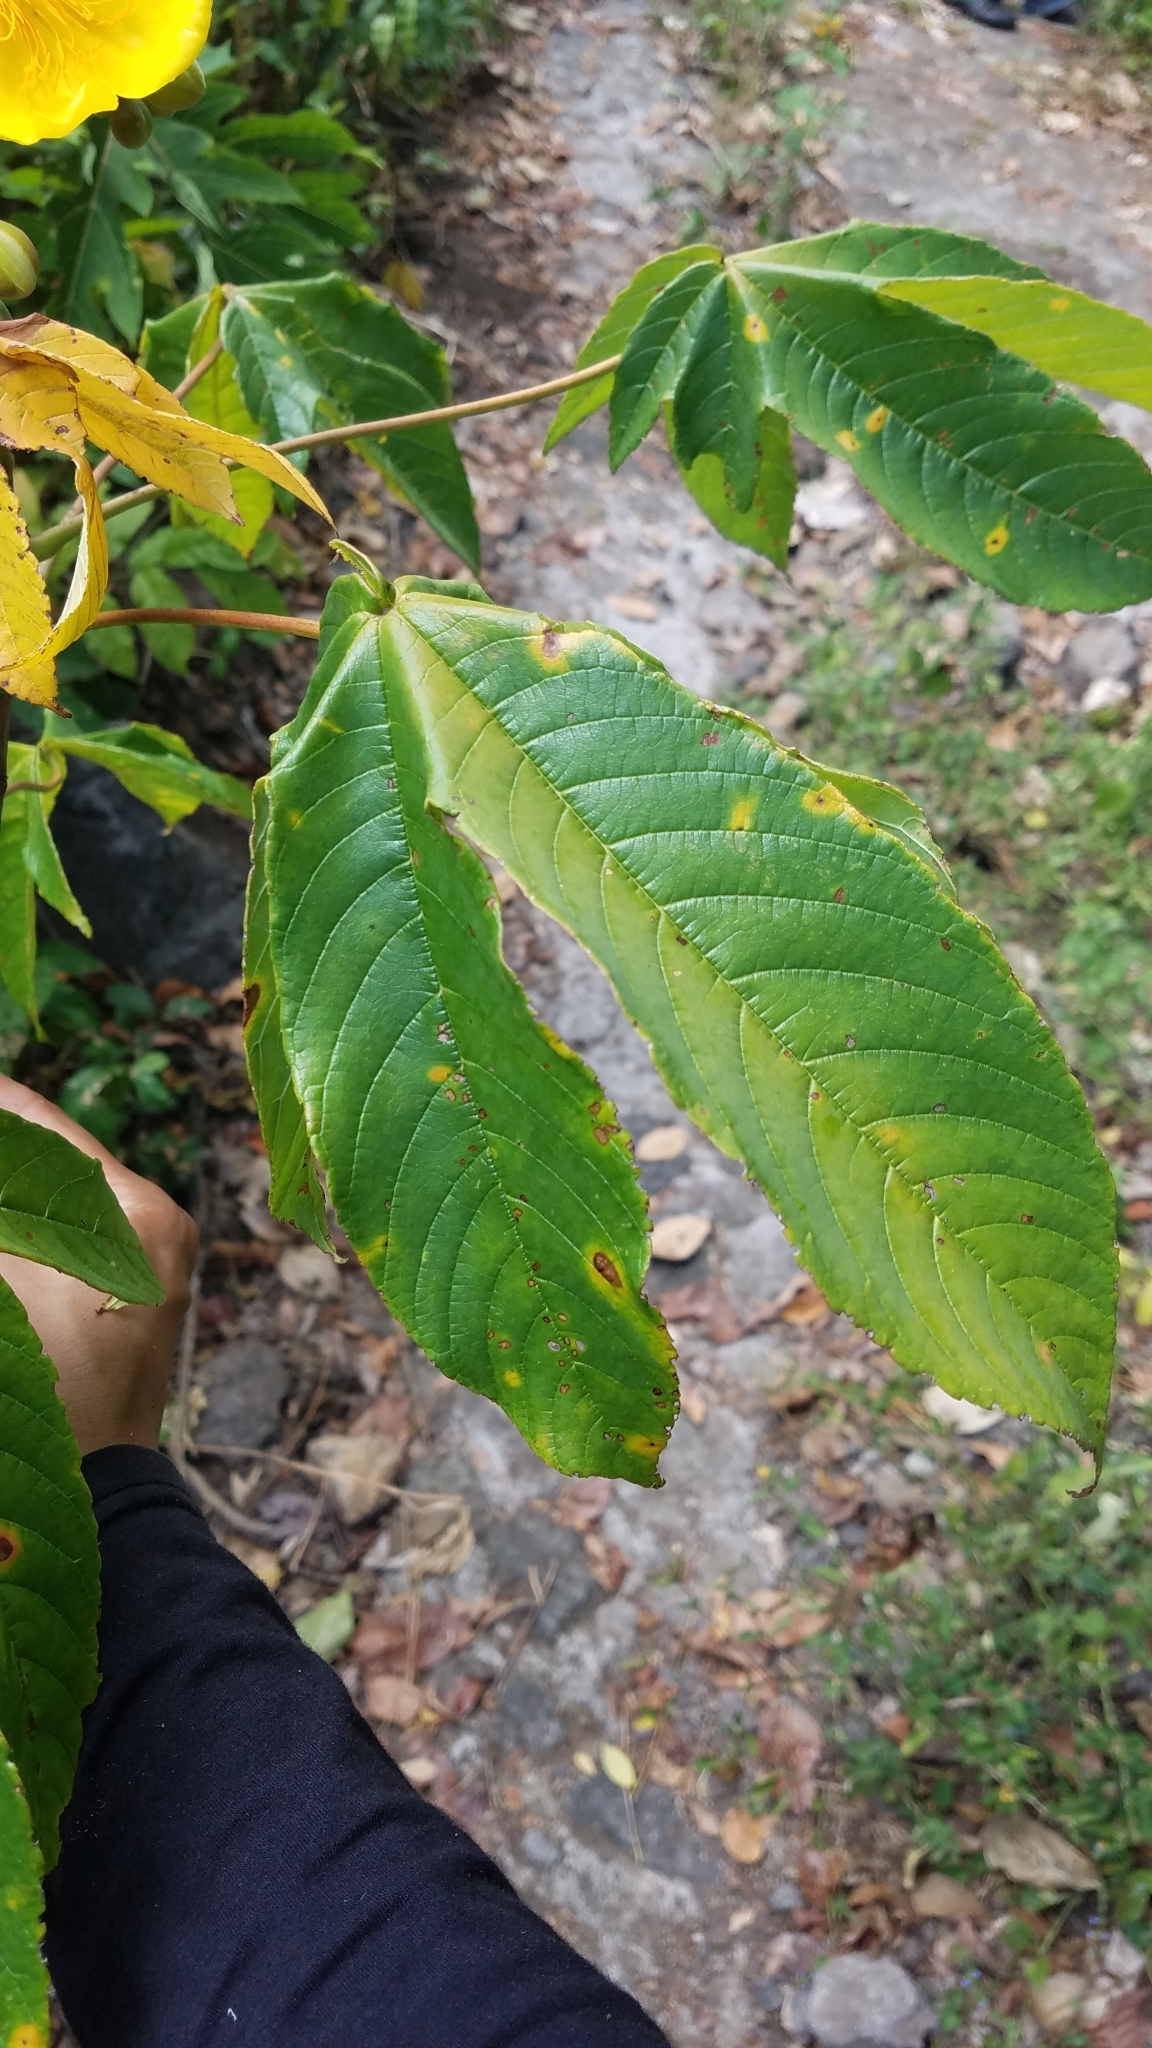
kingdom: Plantae
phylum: Tracheophyta
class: Magnoliopsida
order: Malvales
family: Cochlospermaceae
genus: Cochlospermum
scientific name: Cochlospermum vitifolium
